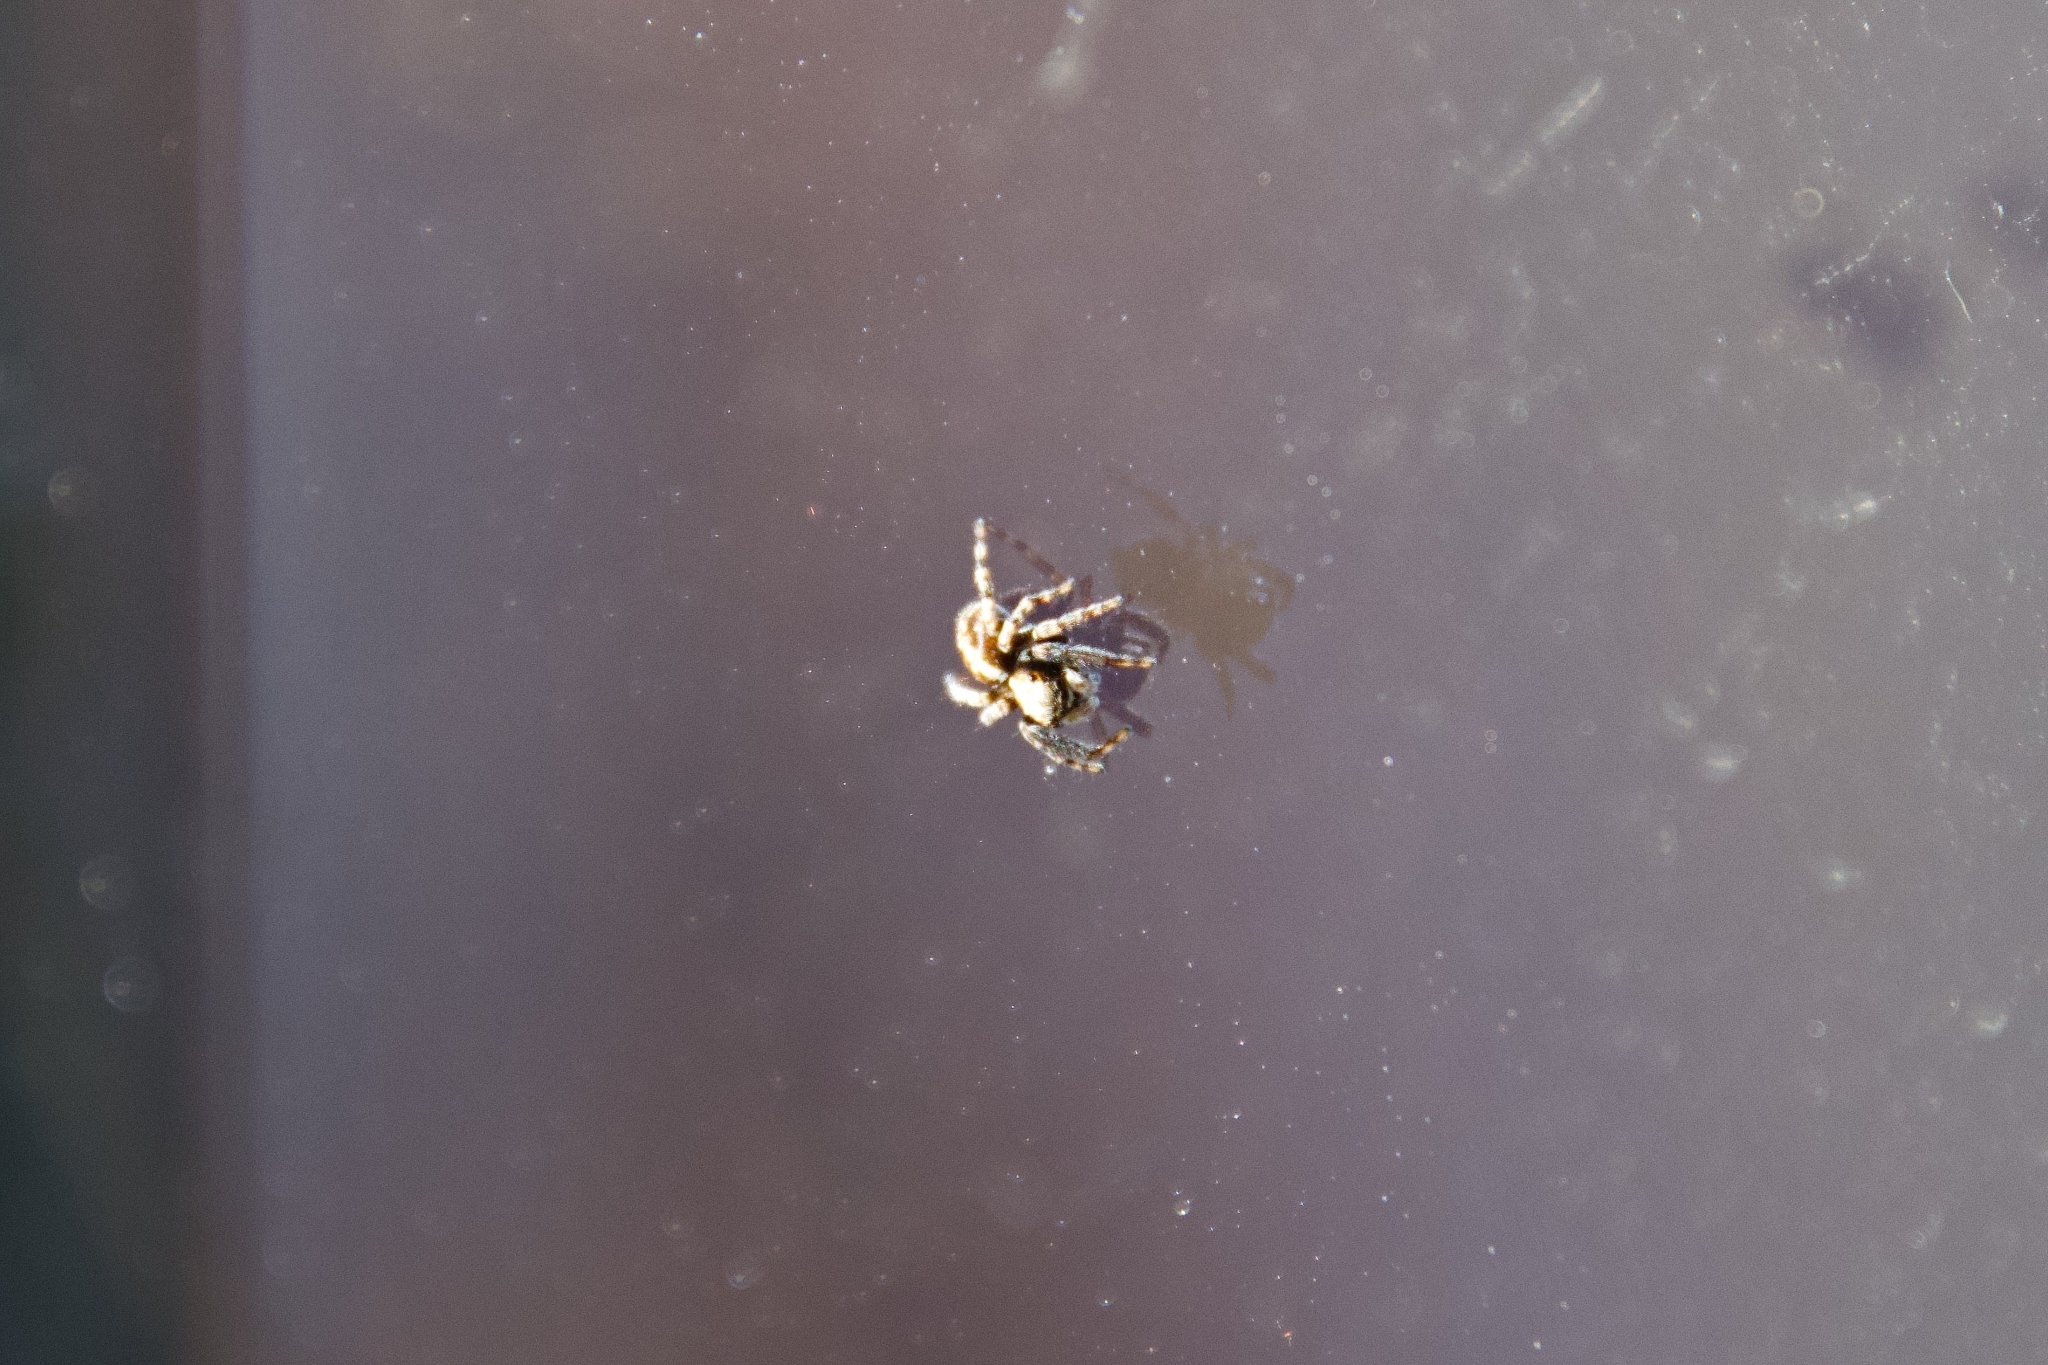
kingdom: Animalia
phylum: Arthropoda
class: Arachnida
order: Araneae
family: Salticidae
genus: Pseudeuophrys
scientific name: Pseudeuophrys lanigera
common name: Jumping spider
